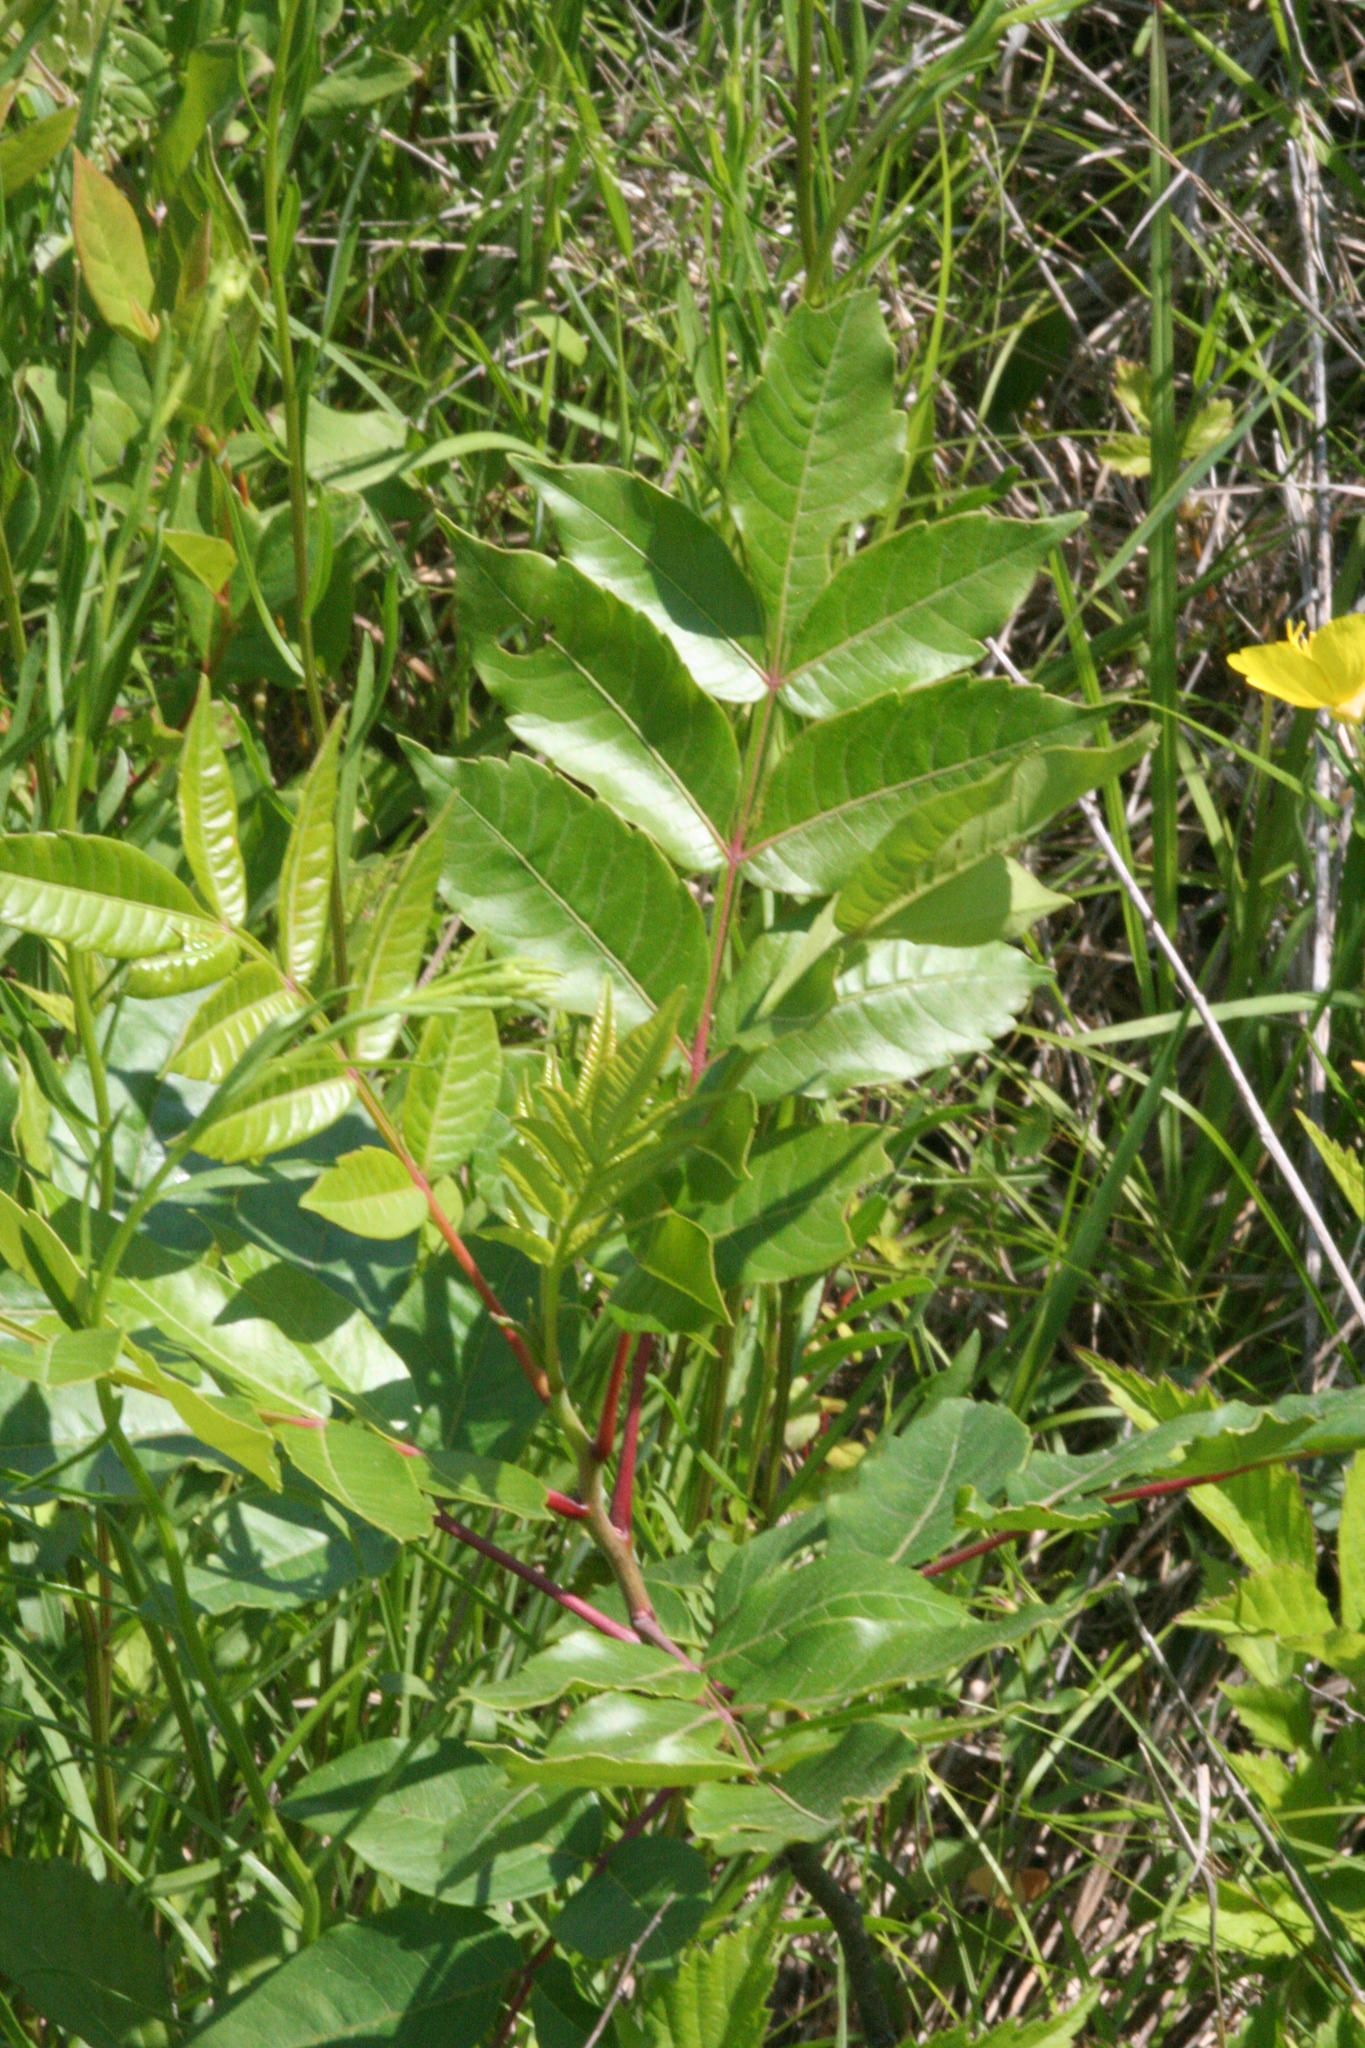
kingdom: Plantae
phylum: Tracheophyta
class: Magnoliopsida
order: Sapindales
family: Anacardiaceae
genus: Rhus
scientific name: Rhus copallina
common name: Shining sumac
